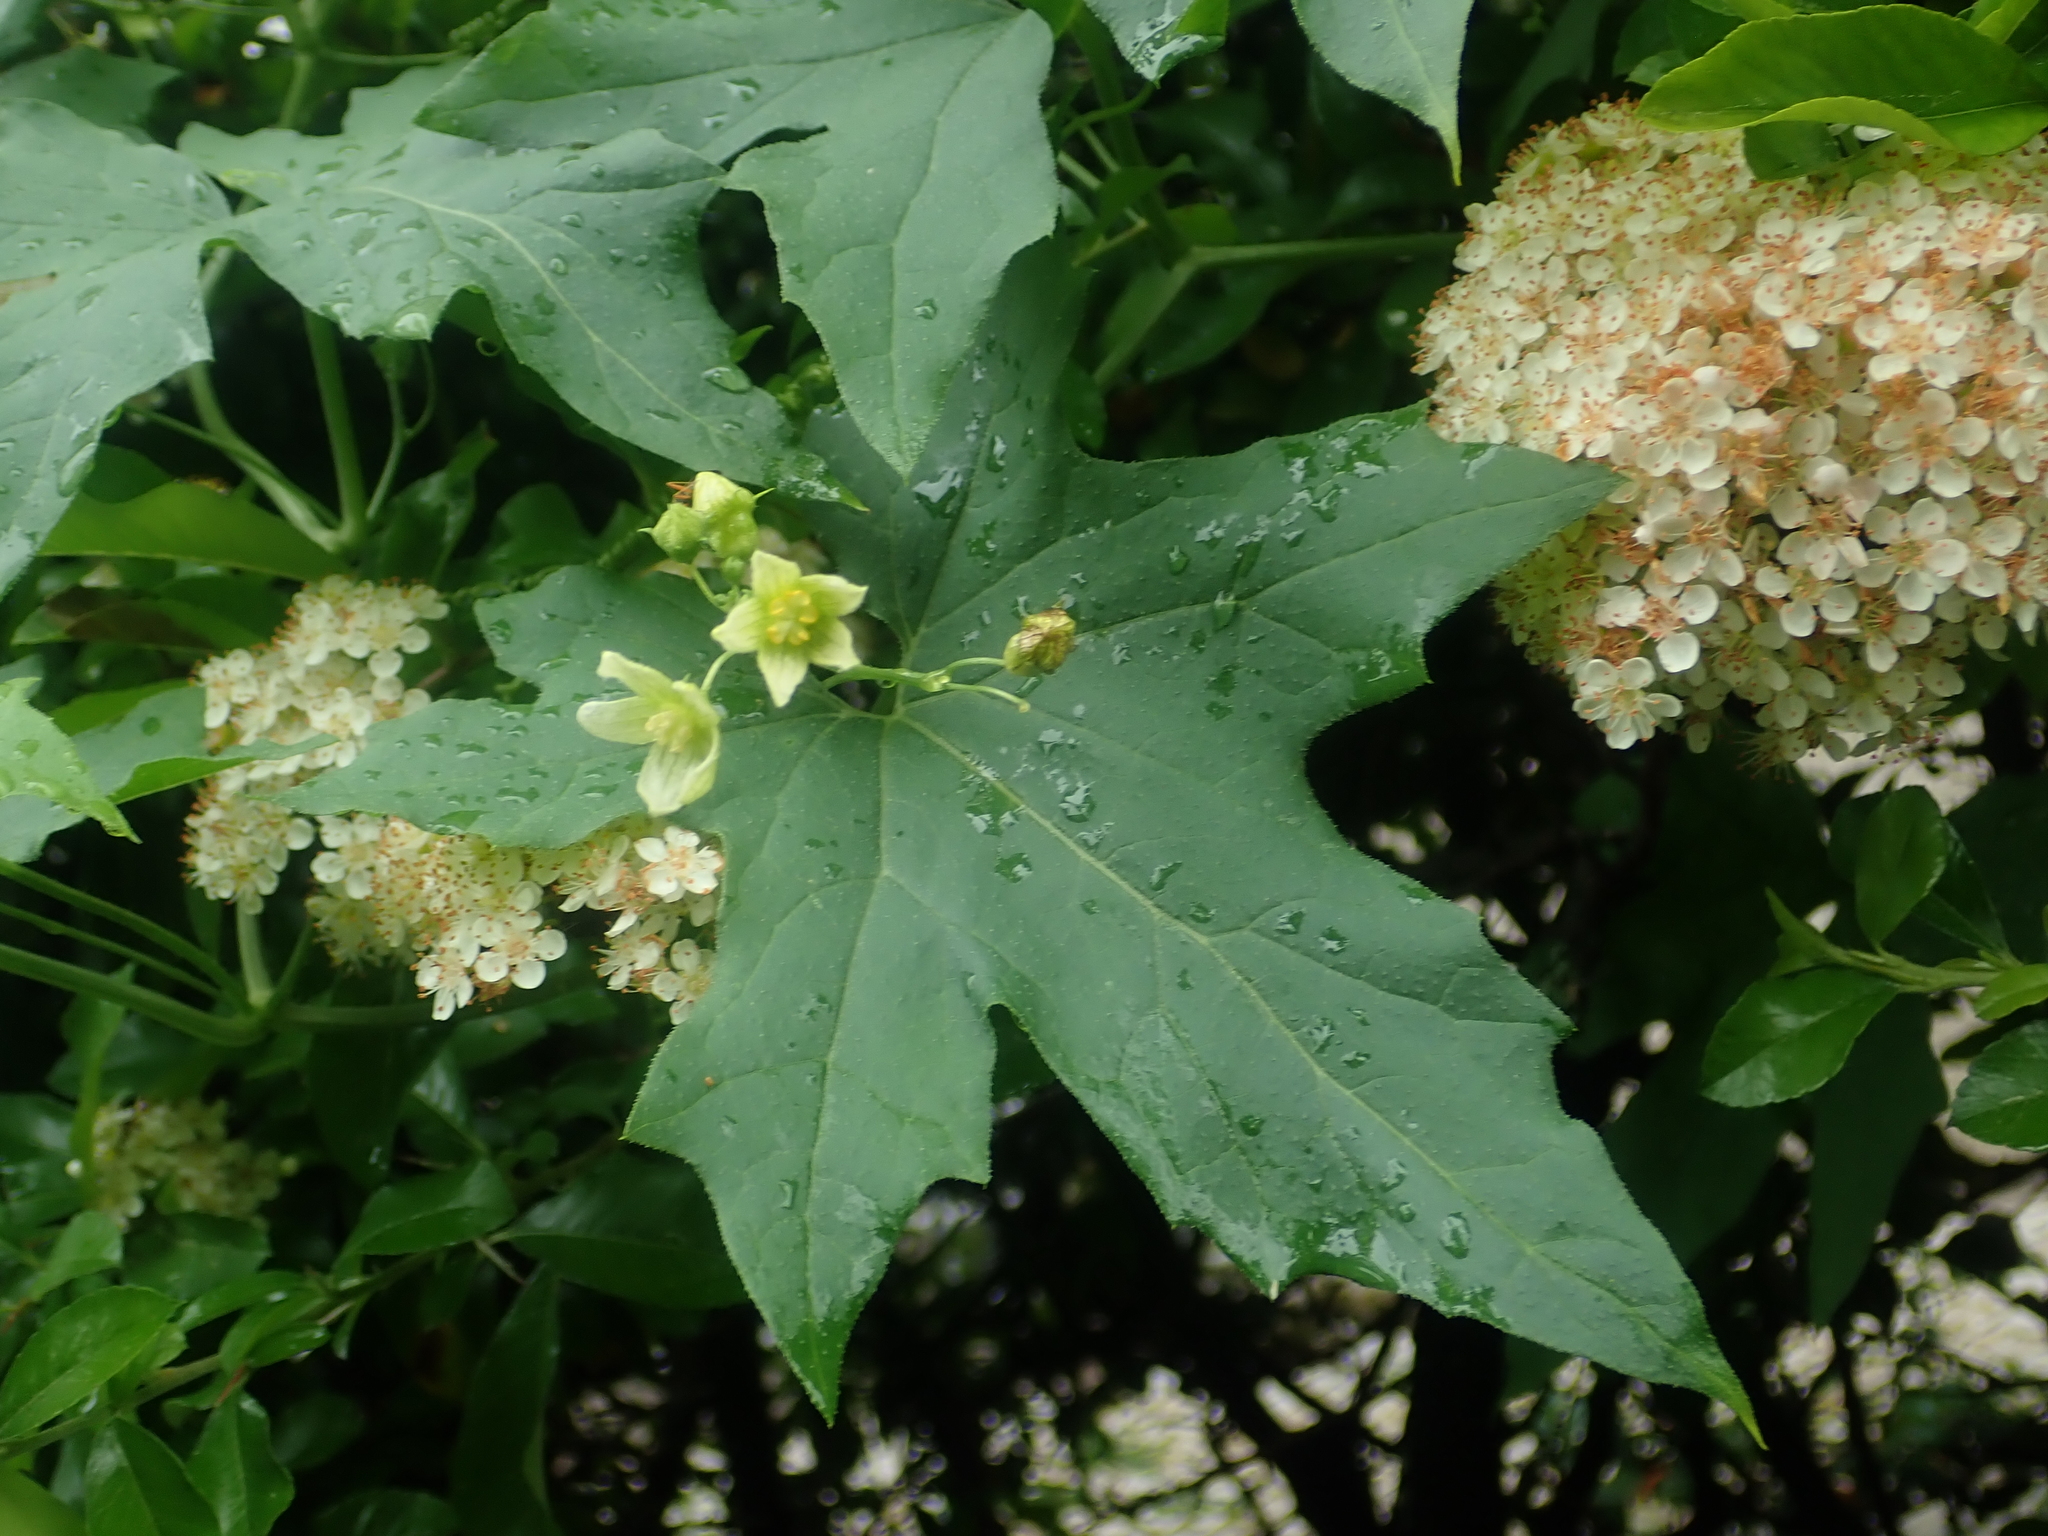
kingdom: Plantae
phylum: Tracheophyta
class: Magnoliopsida
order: Cucurbitales
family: Cucurbitaceae
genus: Bryonia
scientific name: Bryonia cretica
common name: Cretan bryony
